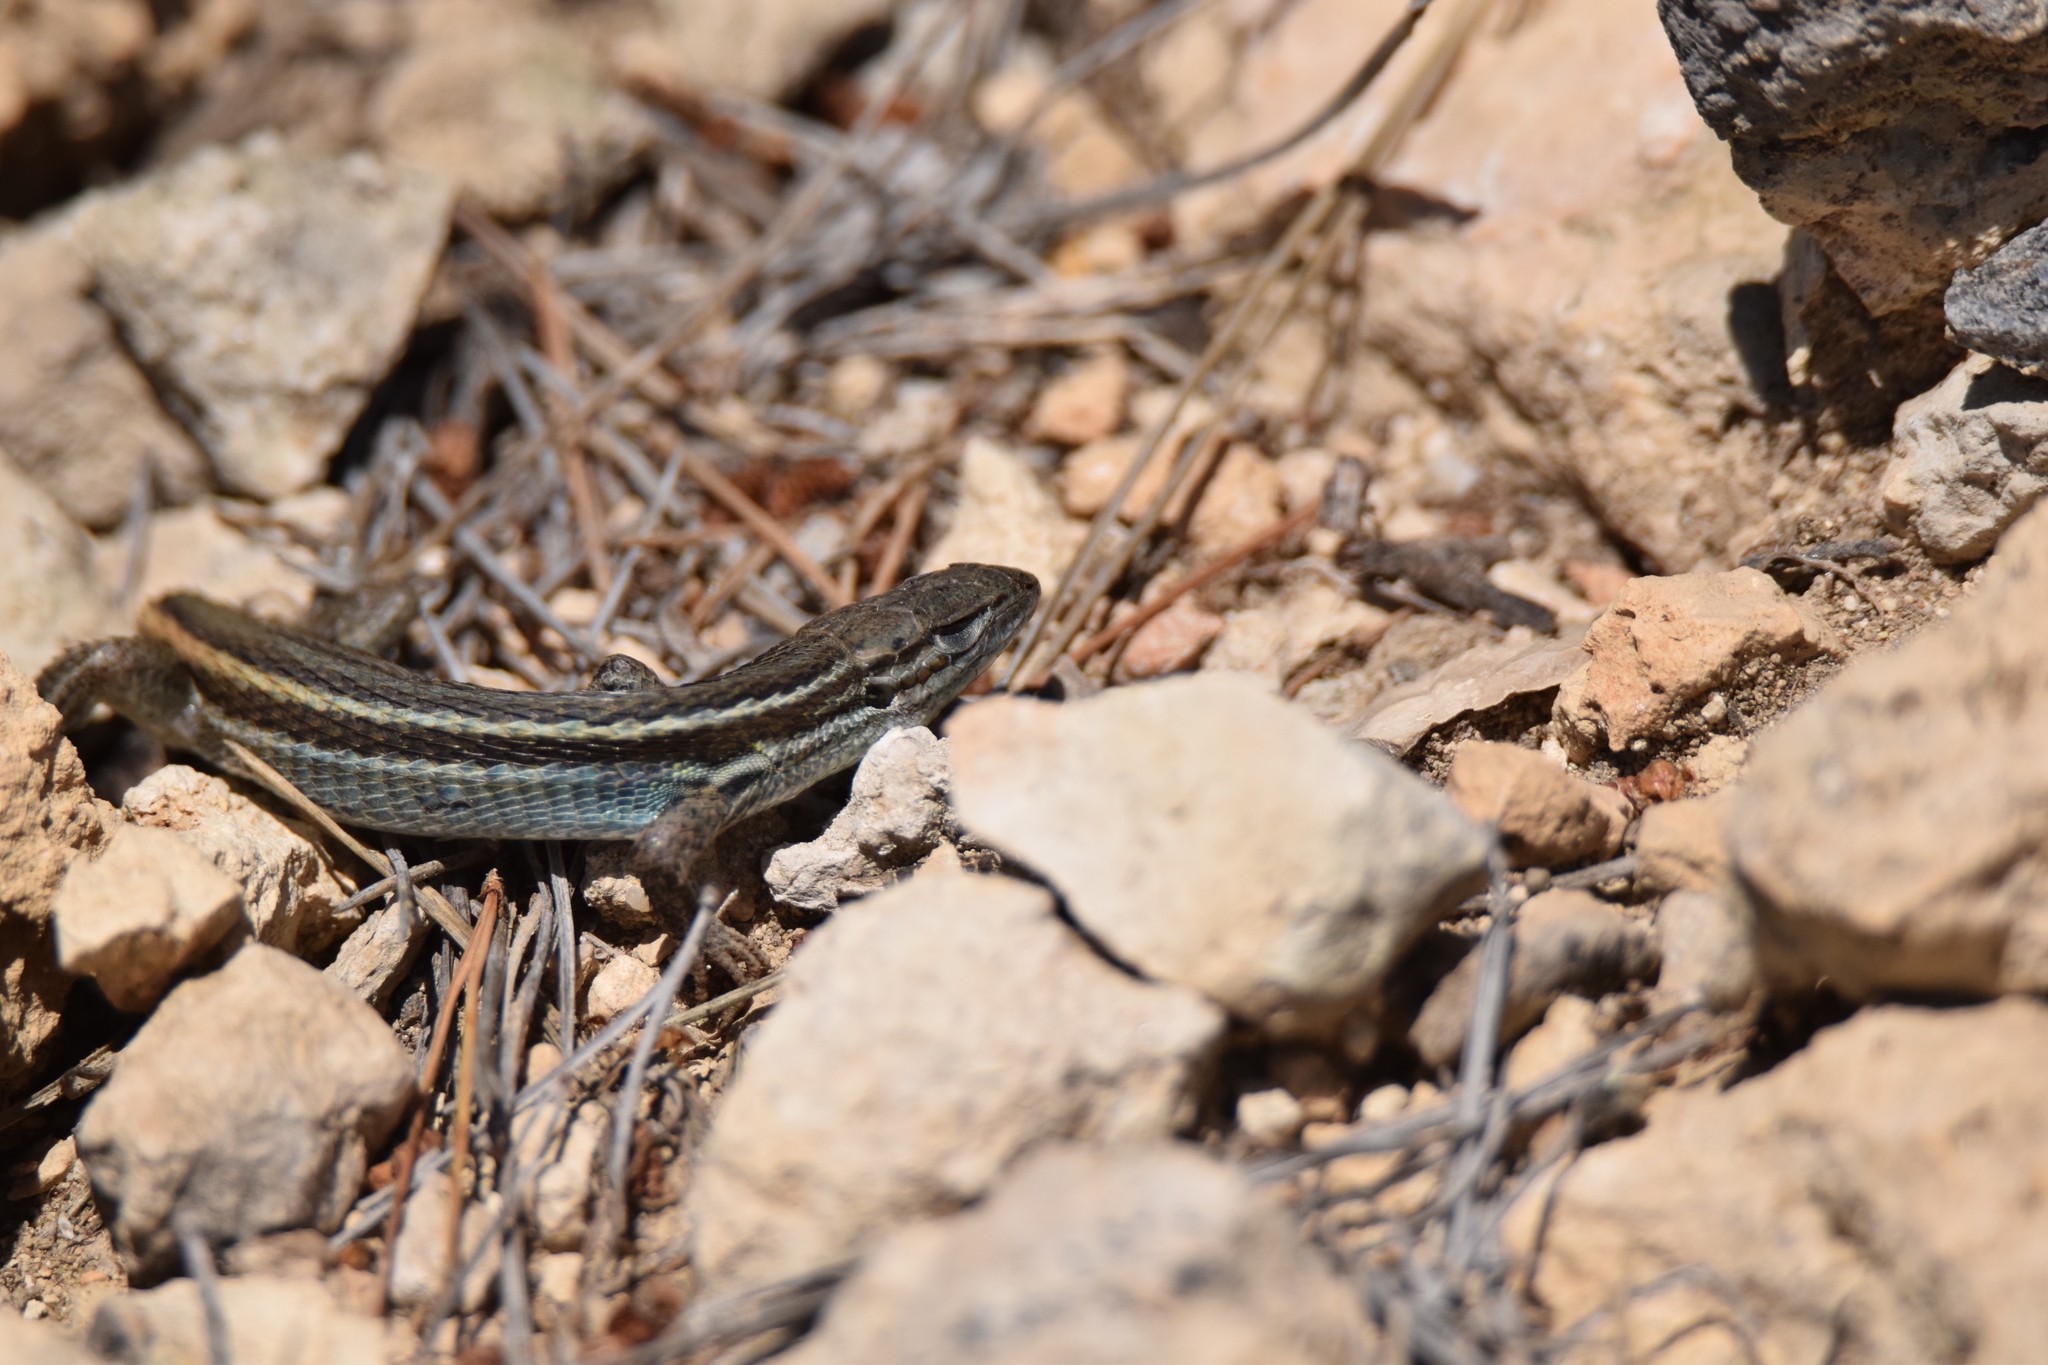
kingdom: Animalia
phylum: Chordata
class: Squamata
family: Lacertidae
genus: Psammodromus
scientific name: Psammodromus algirus
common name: Algerian psammodromus
